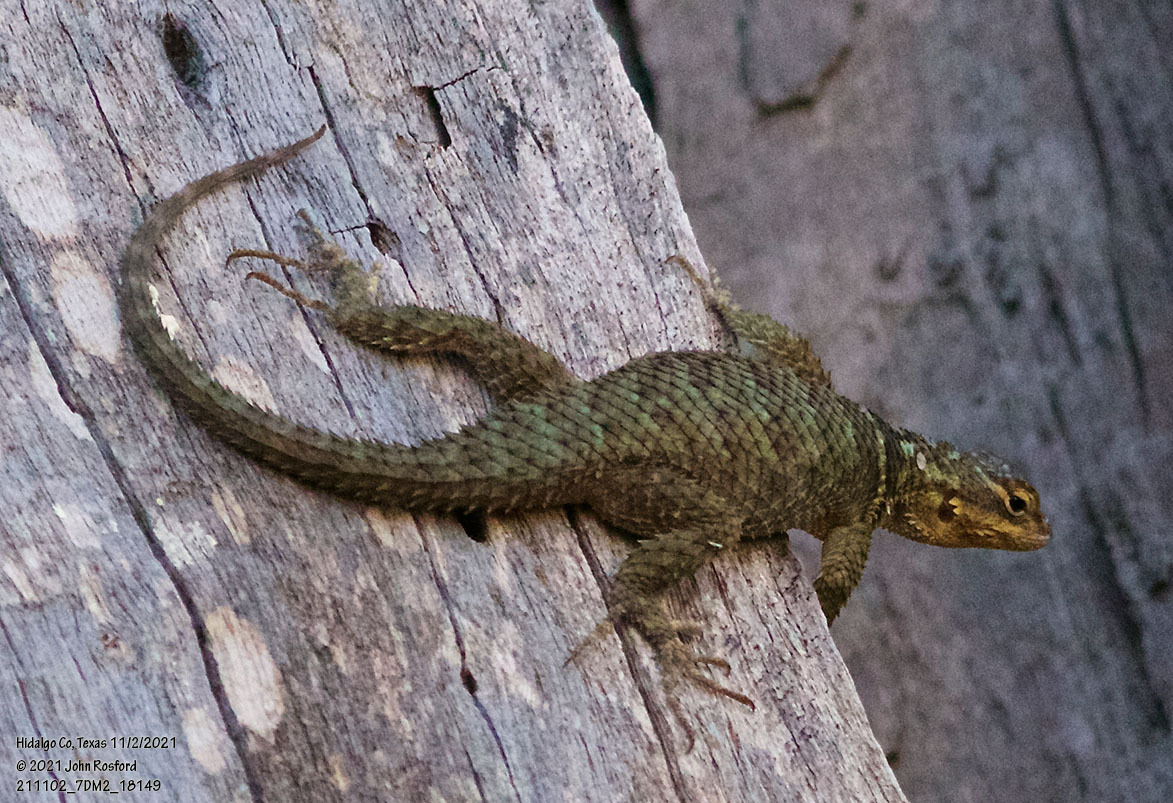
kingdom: Animalia
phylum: Chordata
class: Squamata
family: Phrynosomatidae
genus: Sceloporus
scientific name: Sceloporus cyanogenys
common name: Blue spiny lizard
